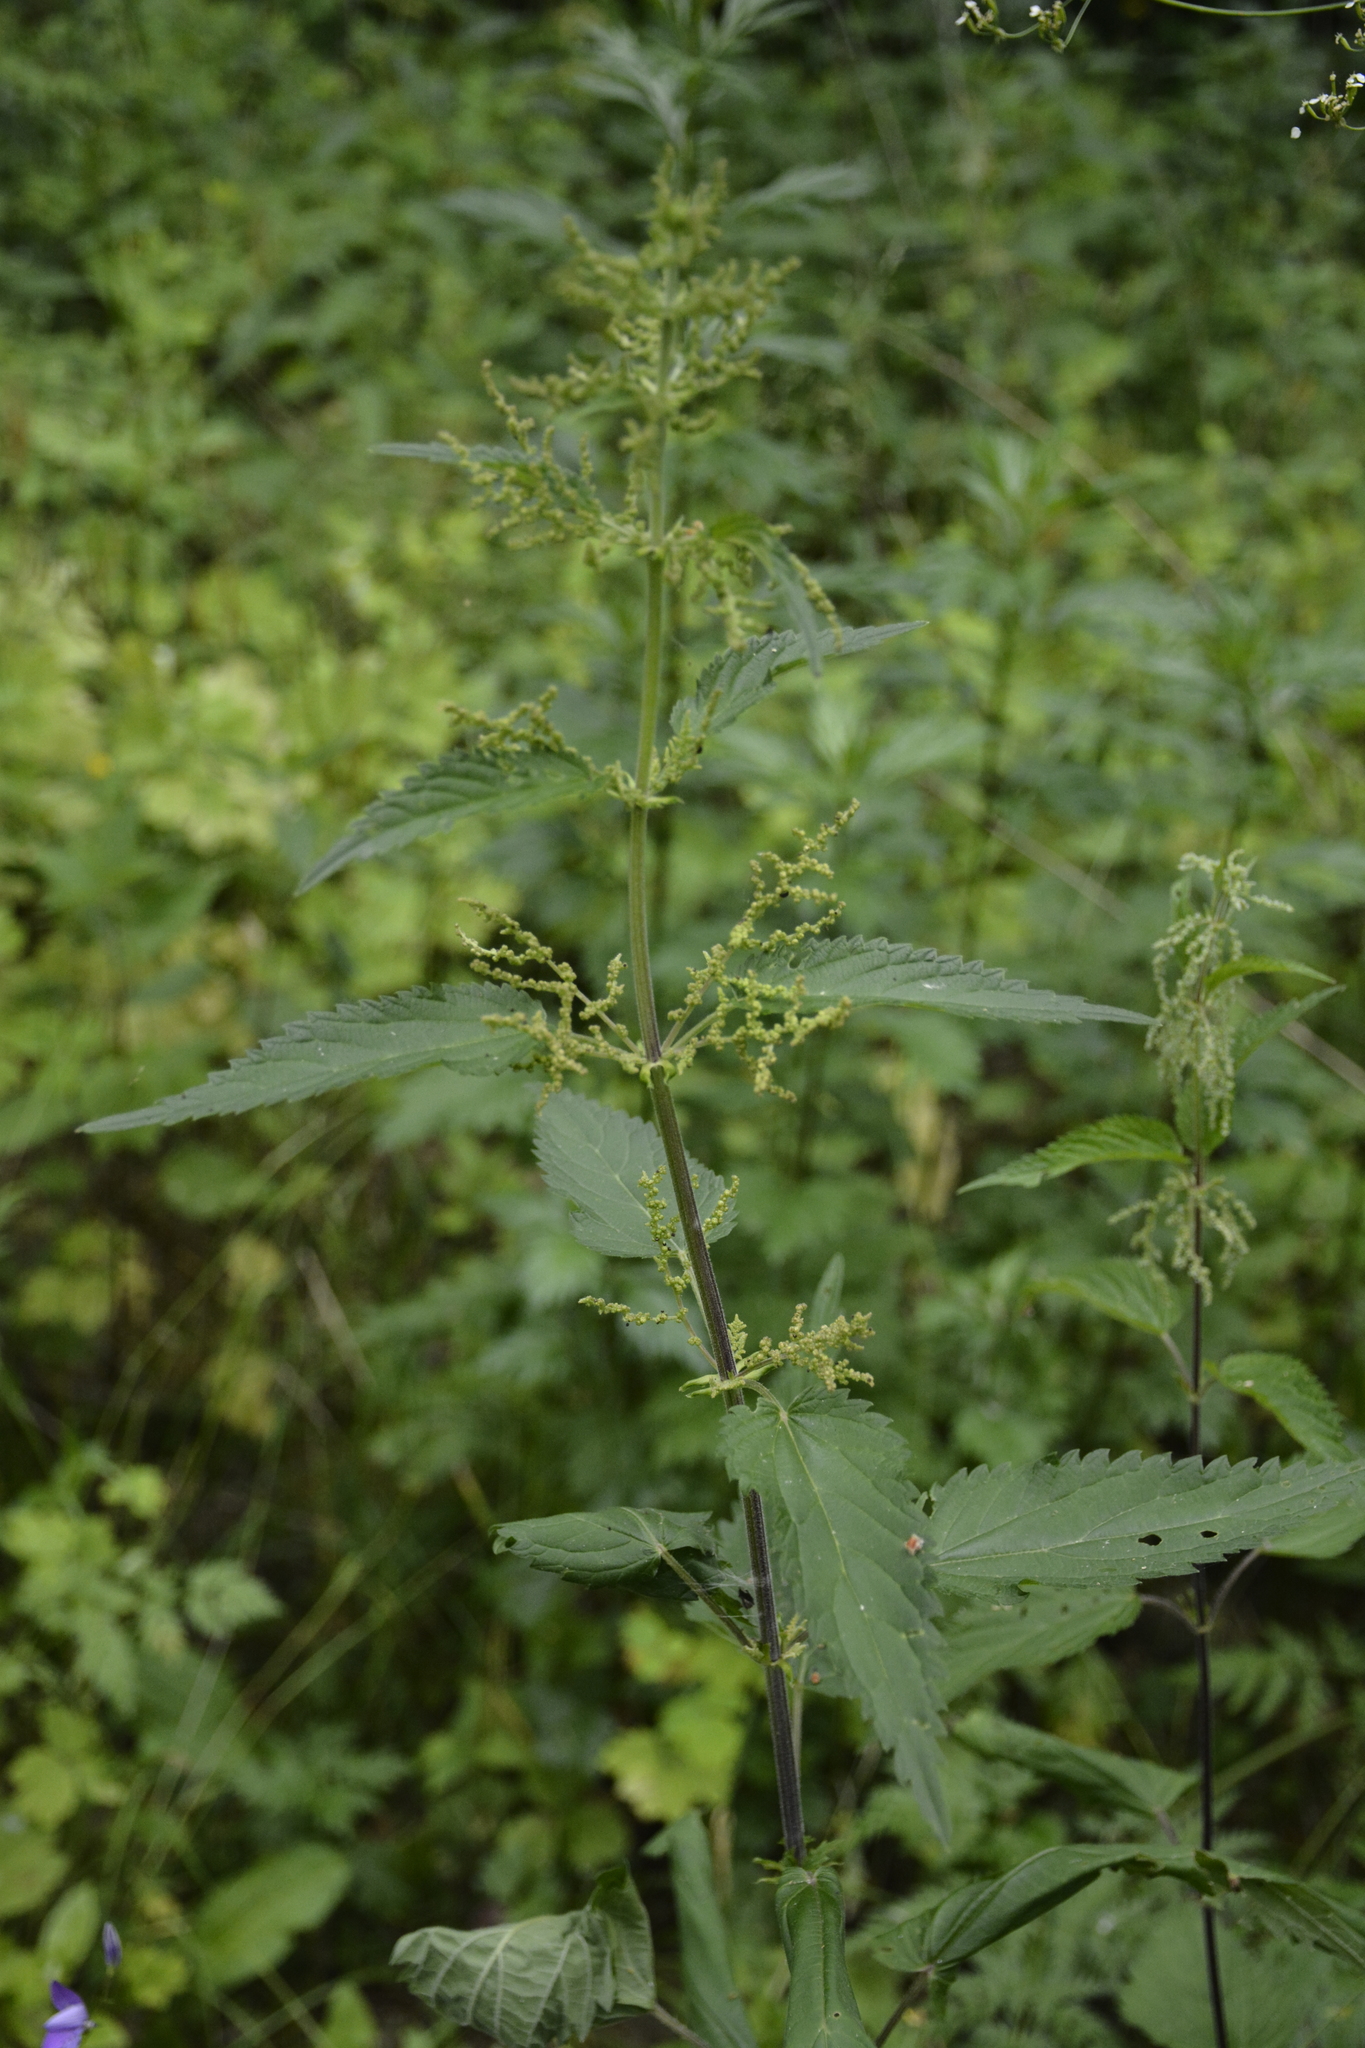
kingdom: Plantae
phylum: Tracheophyta
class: Magnoliopsida
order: Rosales
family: Urticaceae
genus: Urtica
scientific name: Urtica dioica
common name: Common nettle
